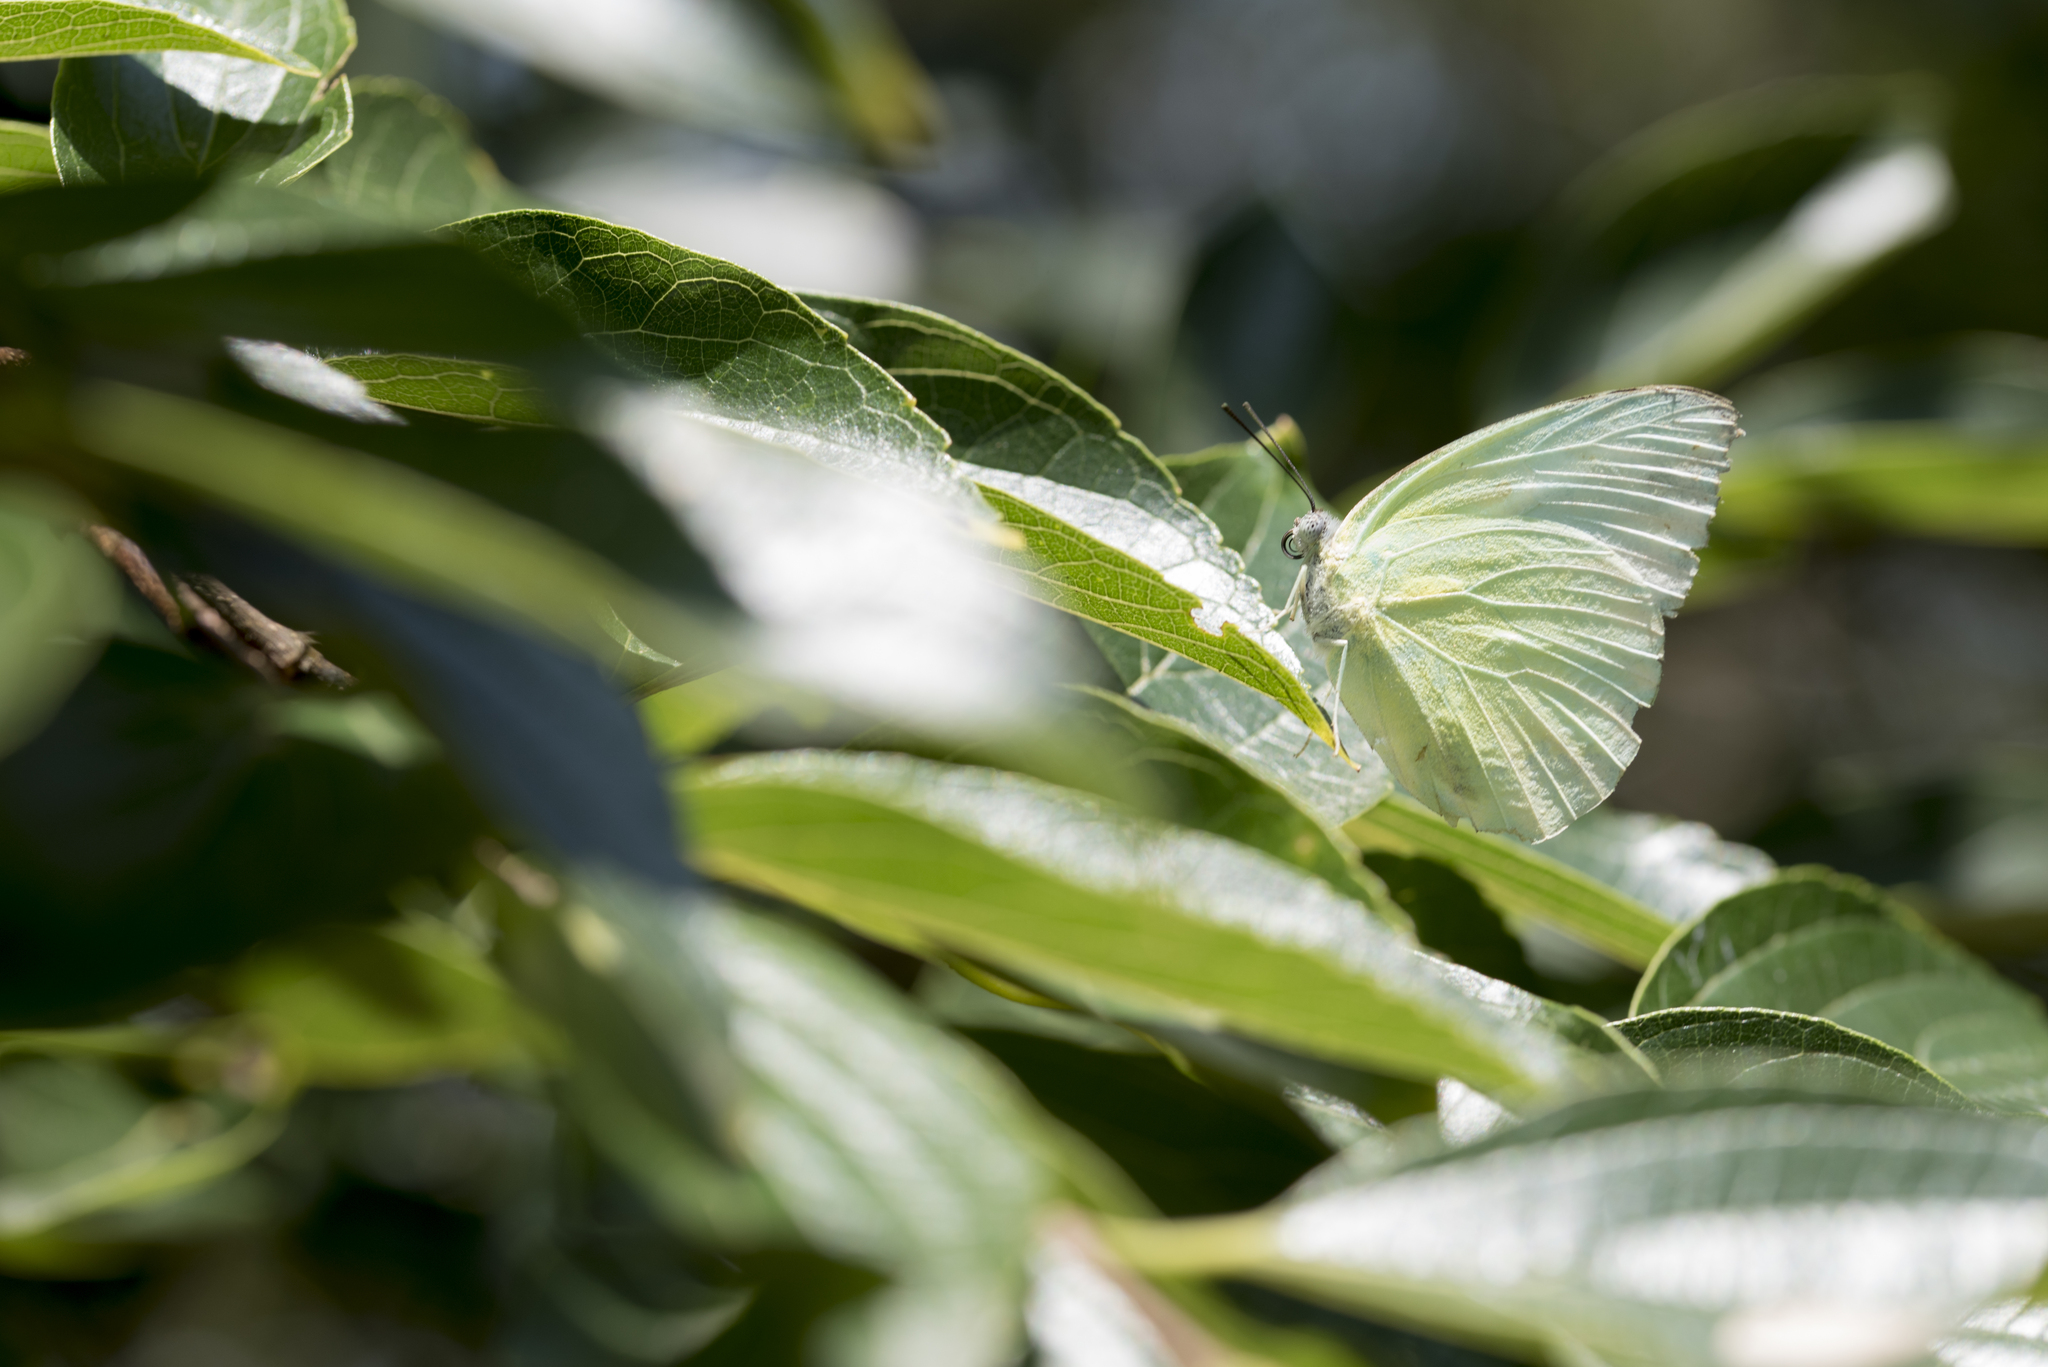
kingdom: Animalia
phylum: Arthropoda
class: Insecta
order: Lepidoptera
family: Pieridae
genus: Catopsilia
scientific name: Catopsilia pomona
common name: Common emigrant
